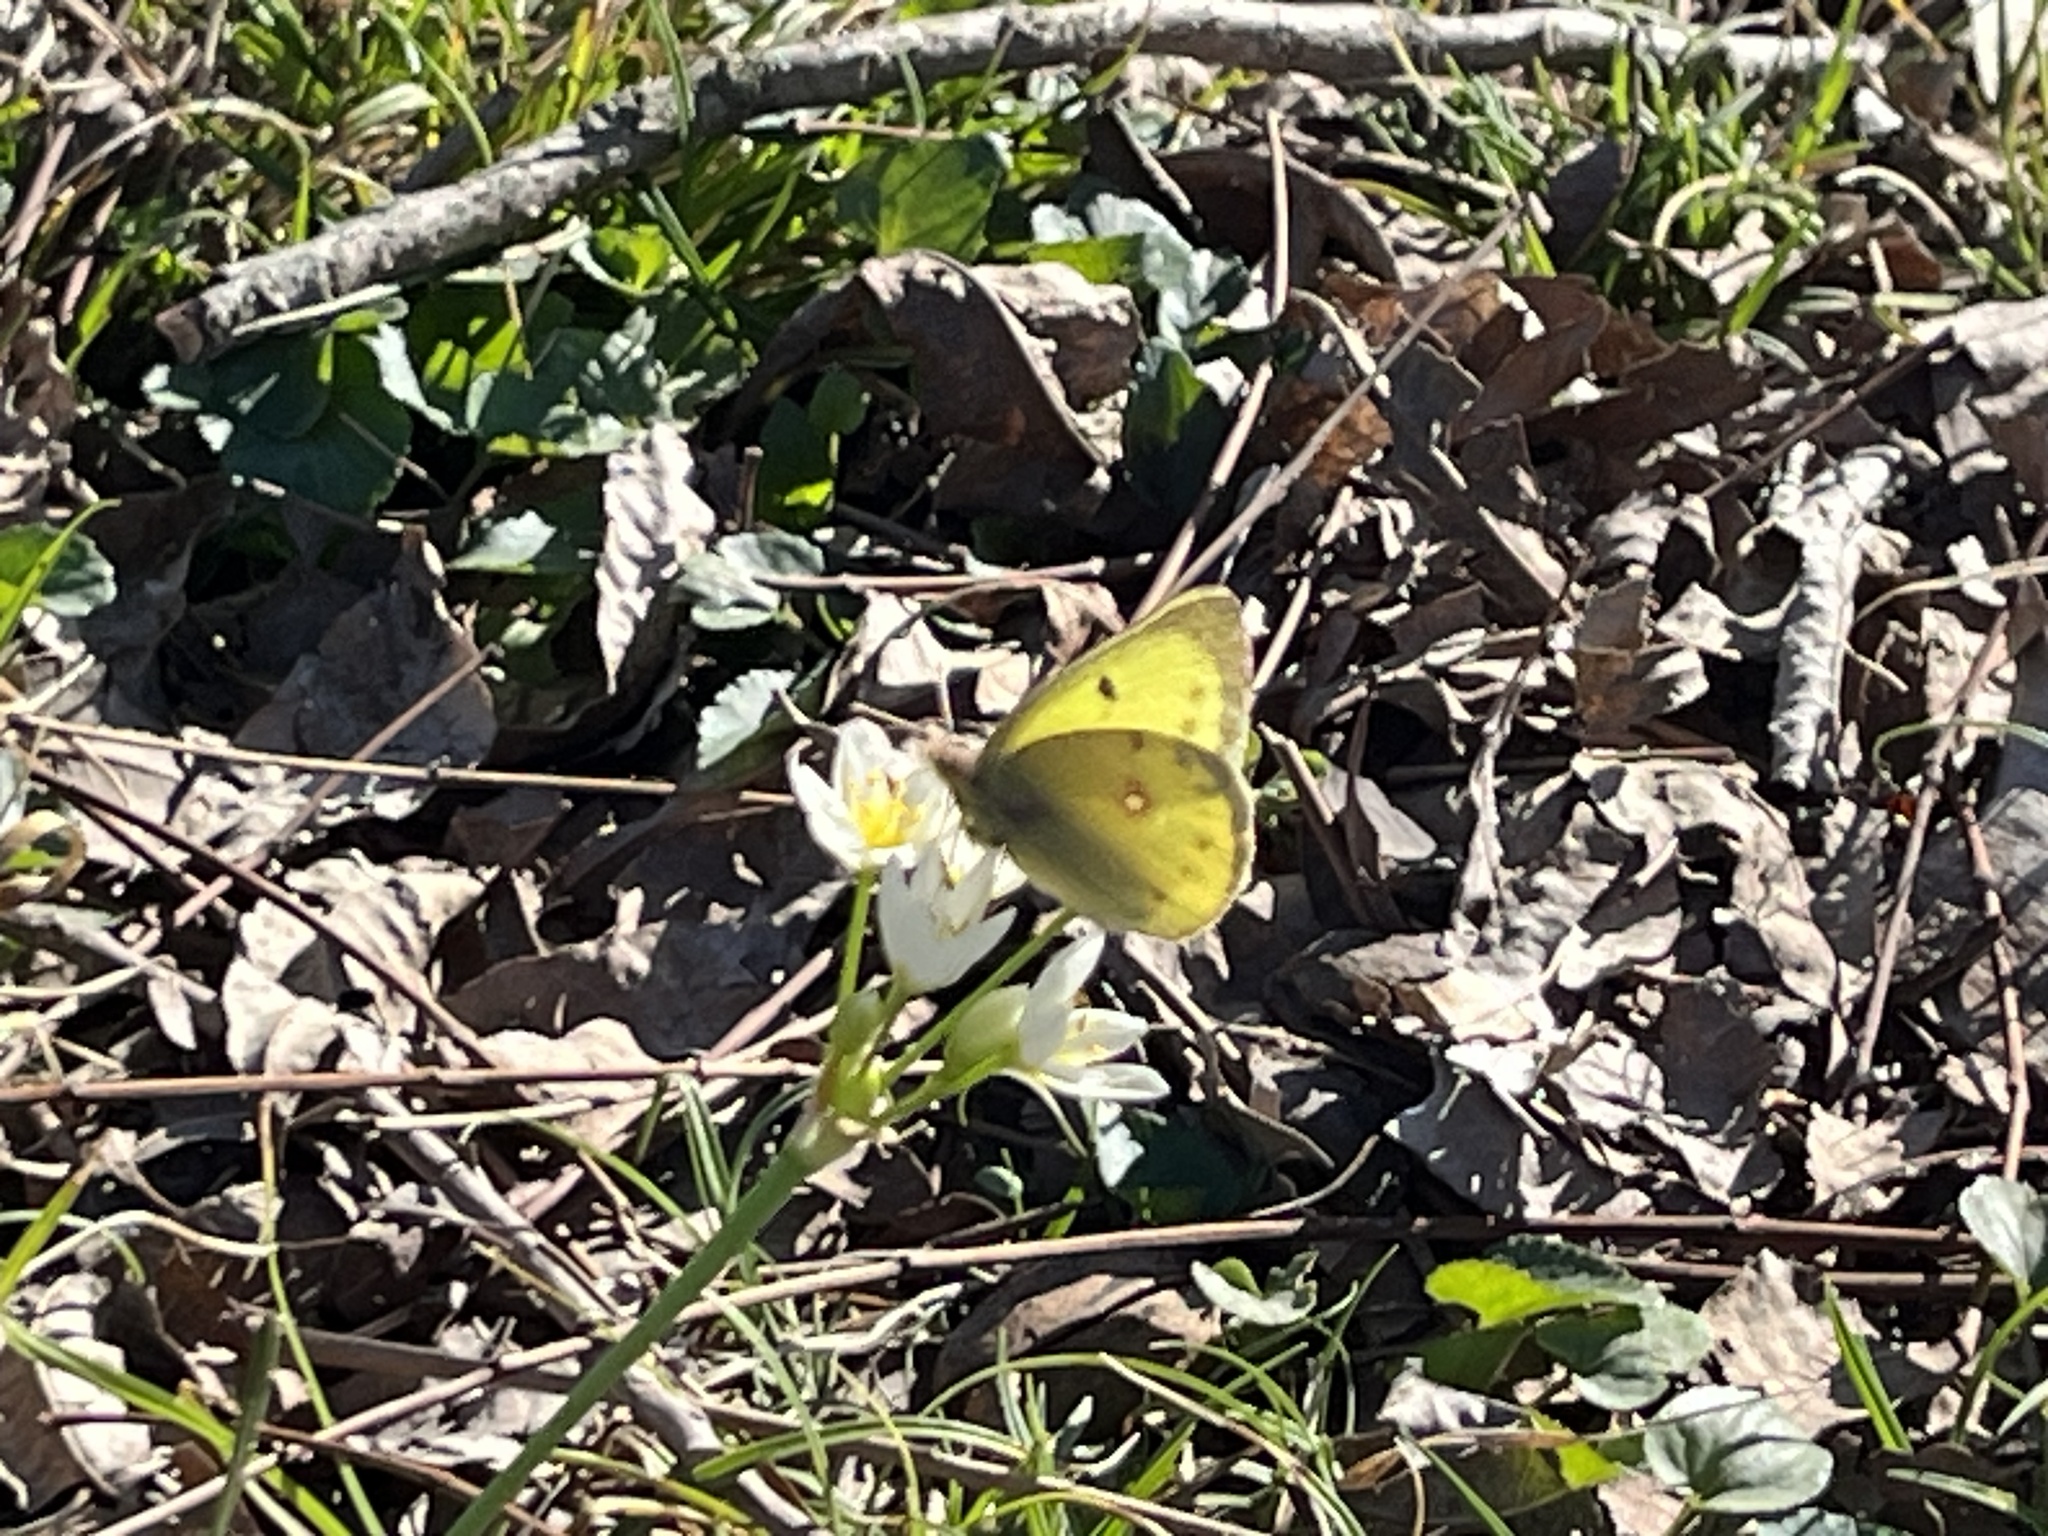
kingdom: Animalia
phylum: Arthropoda
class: Insecta
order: Lepidoptera
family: Pieridae
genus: Colias
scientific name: Colias eurytheme
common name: Alfalfa butterfly
